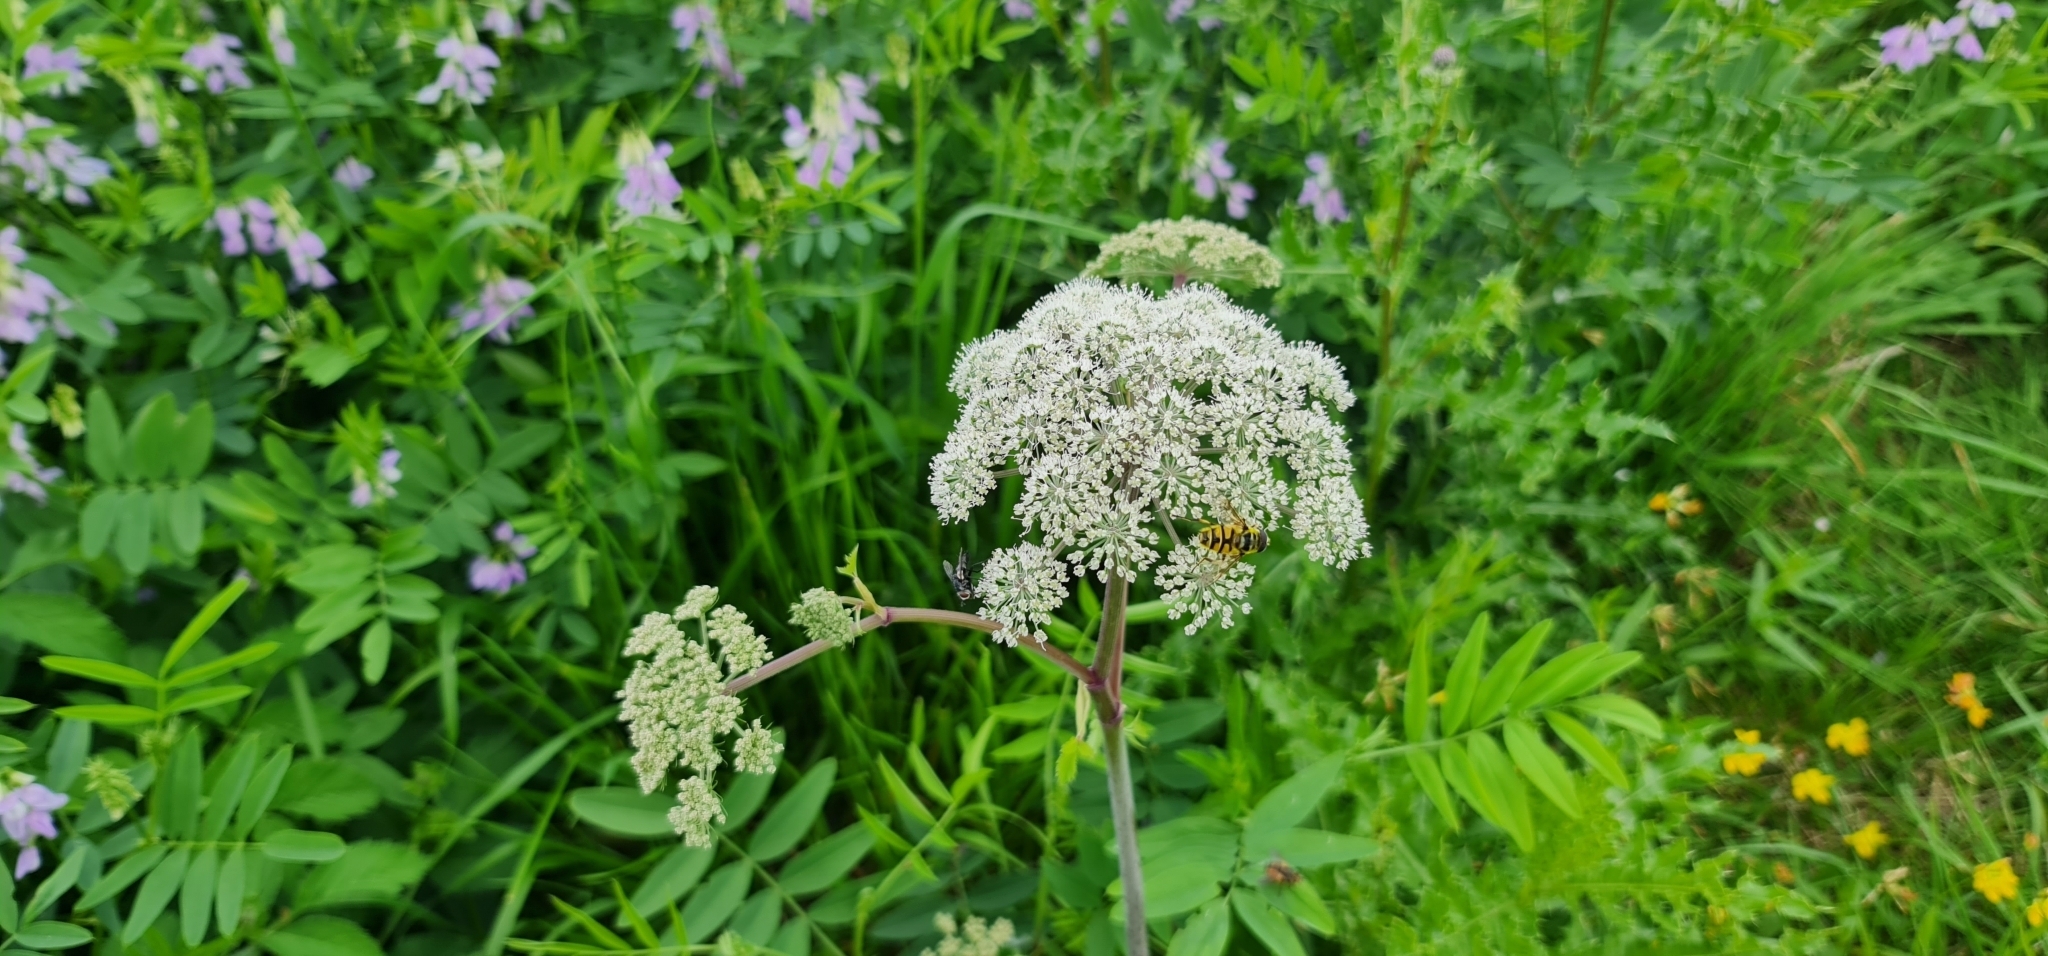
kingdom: Plantae
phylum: Tracheophyta
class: Magnoliopsida
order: Apiales
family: Apiaceae
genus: Angelica
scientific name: Angelica sylvestris
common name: Wild angelica
